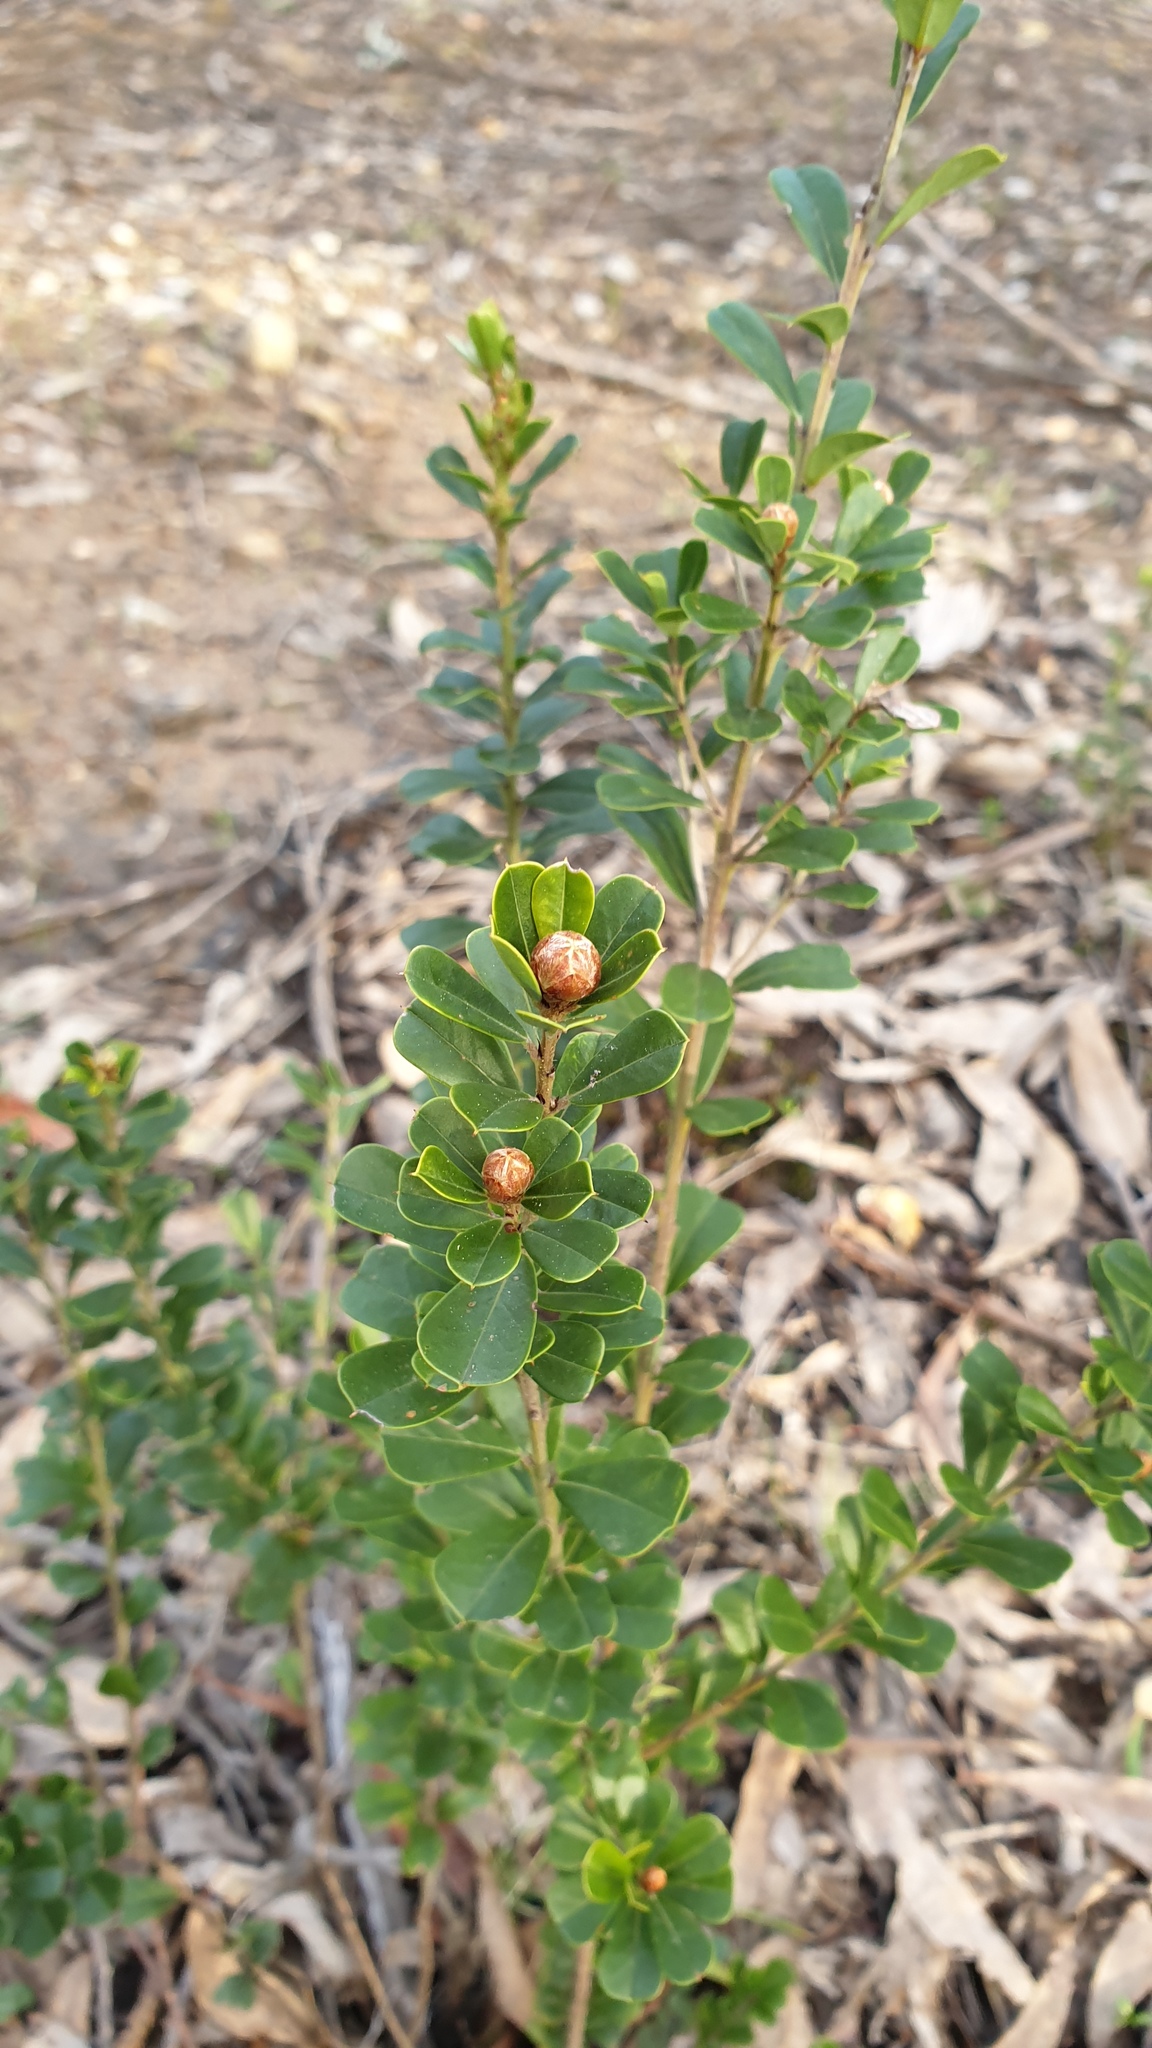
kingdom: Plantae
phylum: Tracheophyta
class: Magnoliopsida
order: Fabales
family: Fabaceae
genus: Pultenaea
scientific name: Pultenaea daphnoides
